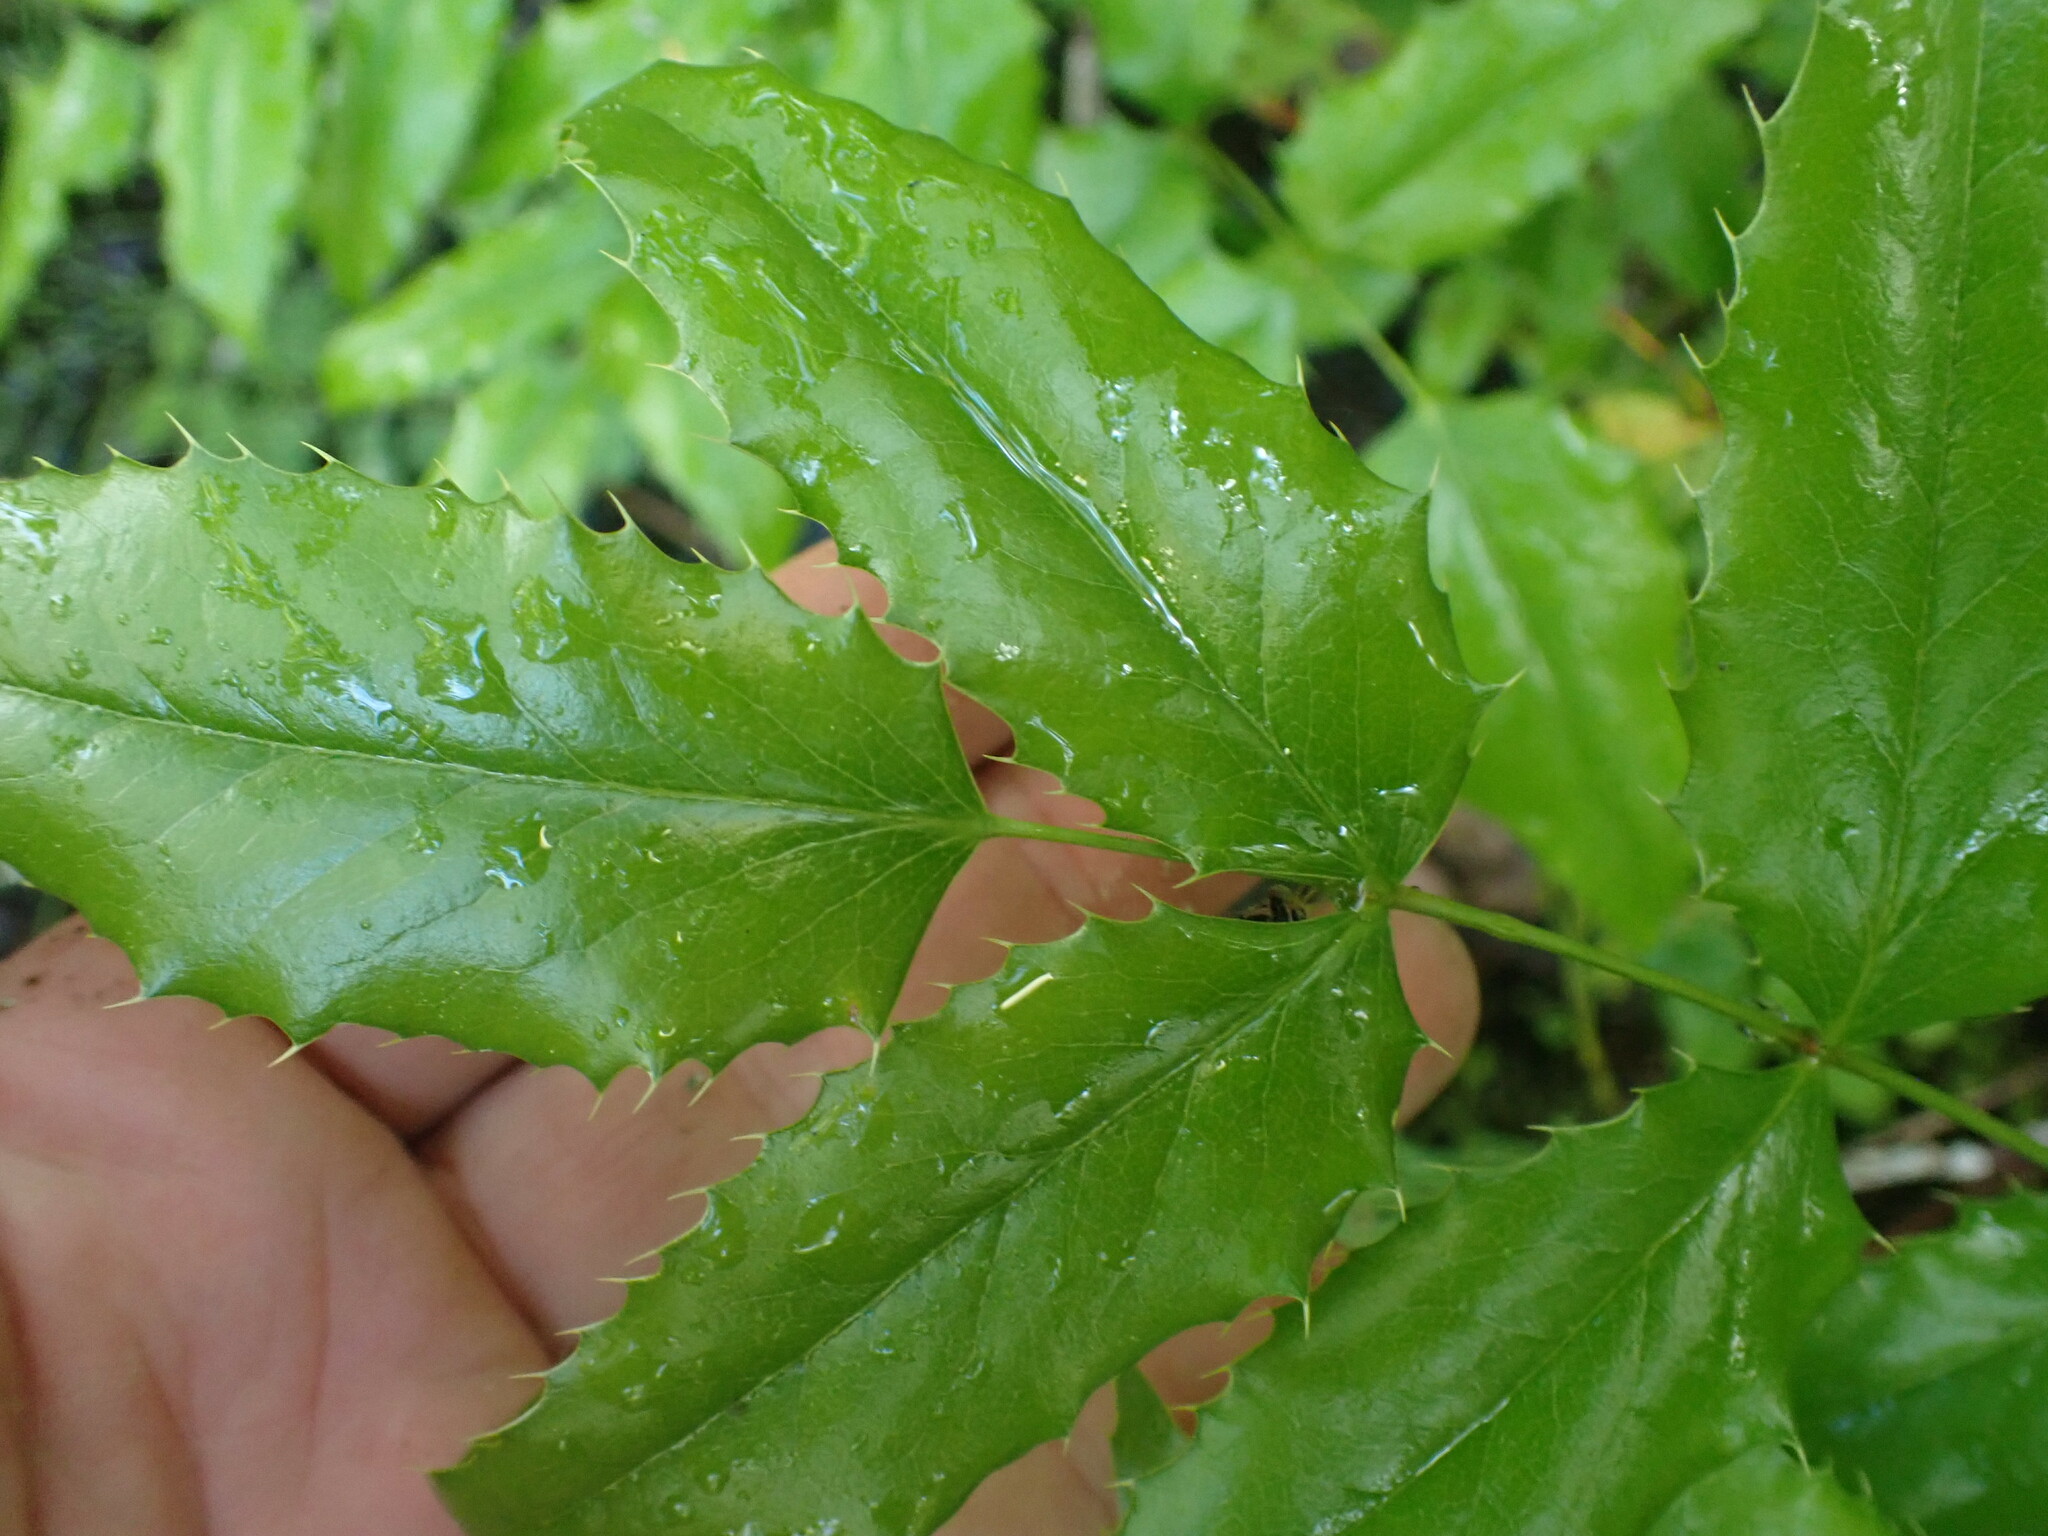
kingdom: Plantae
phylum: Tracheophyta
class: Magnoliopsida
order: Ranunculales
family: Berberidaceae
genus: Mahonia
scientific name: Mahonia aquifolium
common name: Oregon-grape
